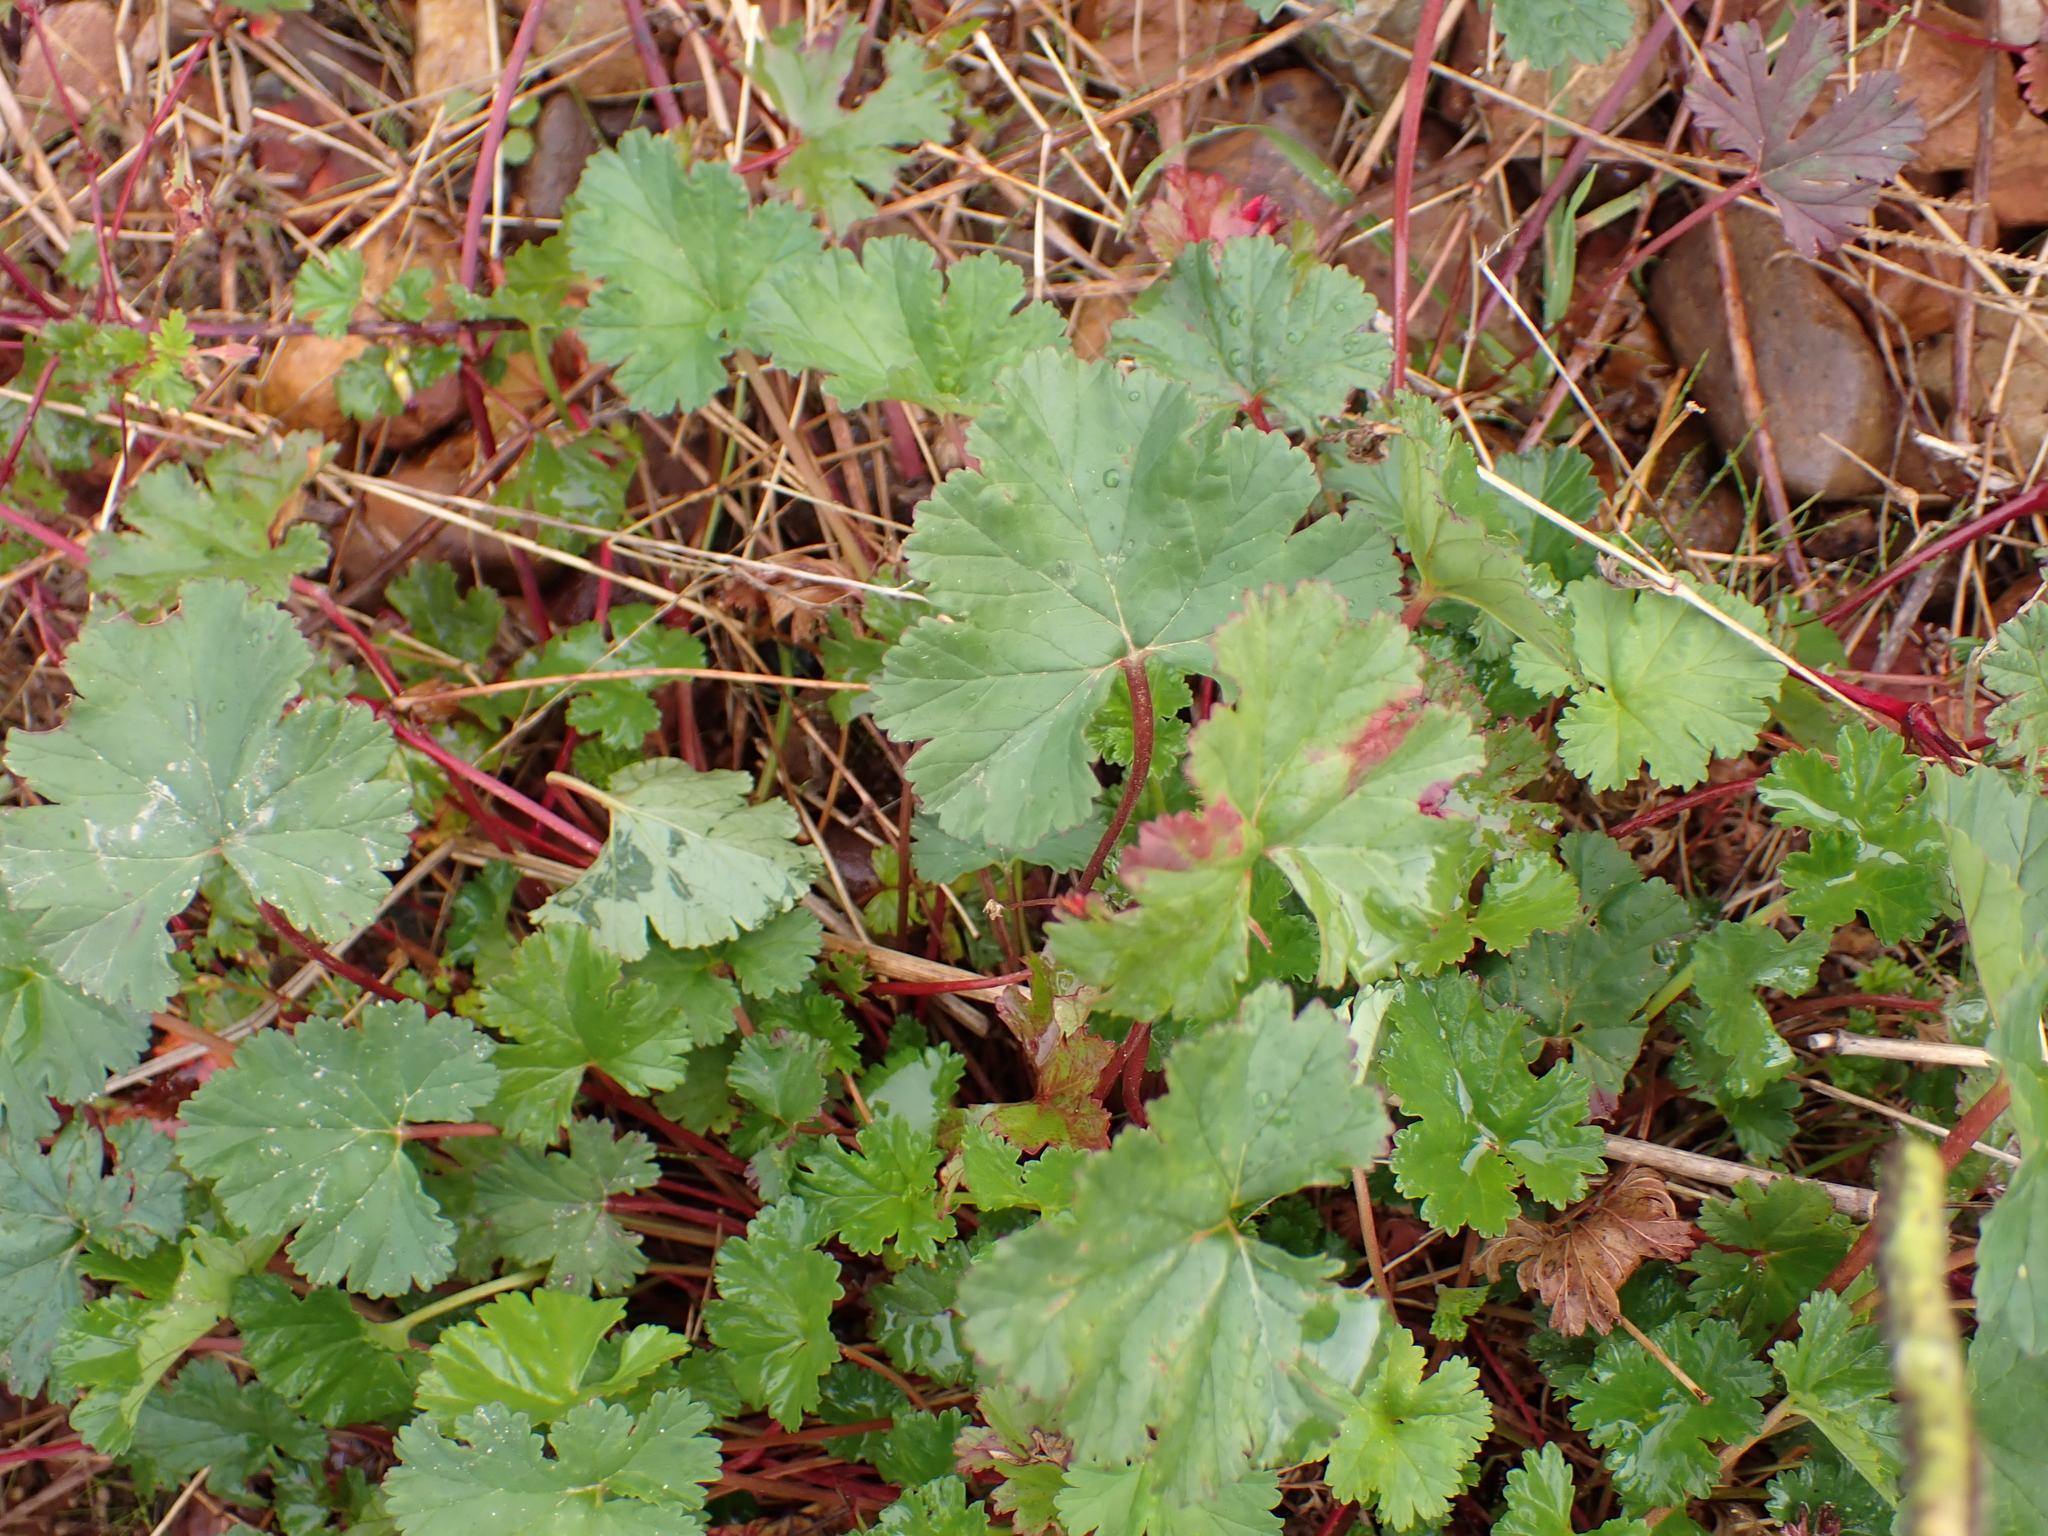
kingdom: Plantae
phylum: Tracheophyta
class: Magnoliopsida
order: Geraniales
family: Geraniaceae
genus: Pelargonium
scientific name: Pelargonium grossularioides
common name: Gooseberry geranium
